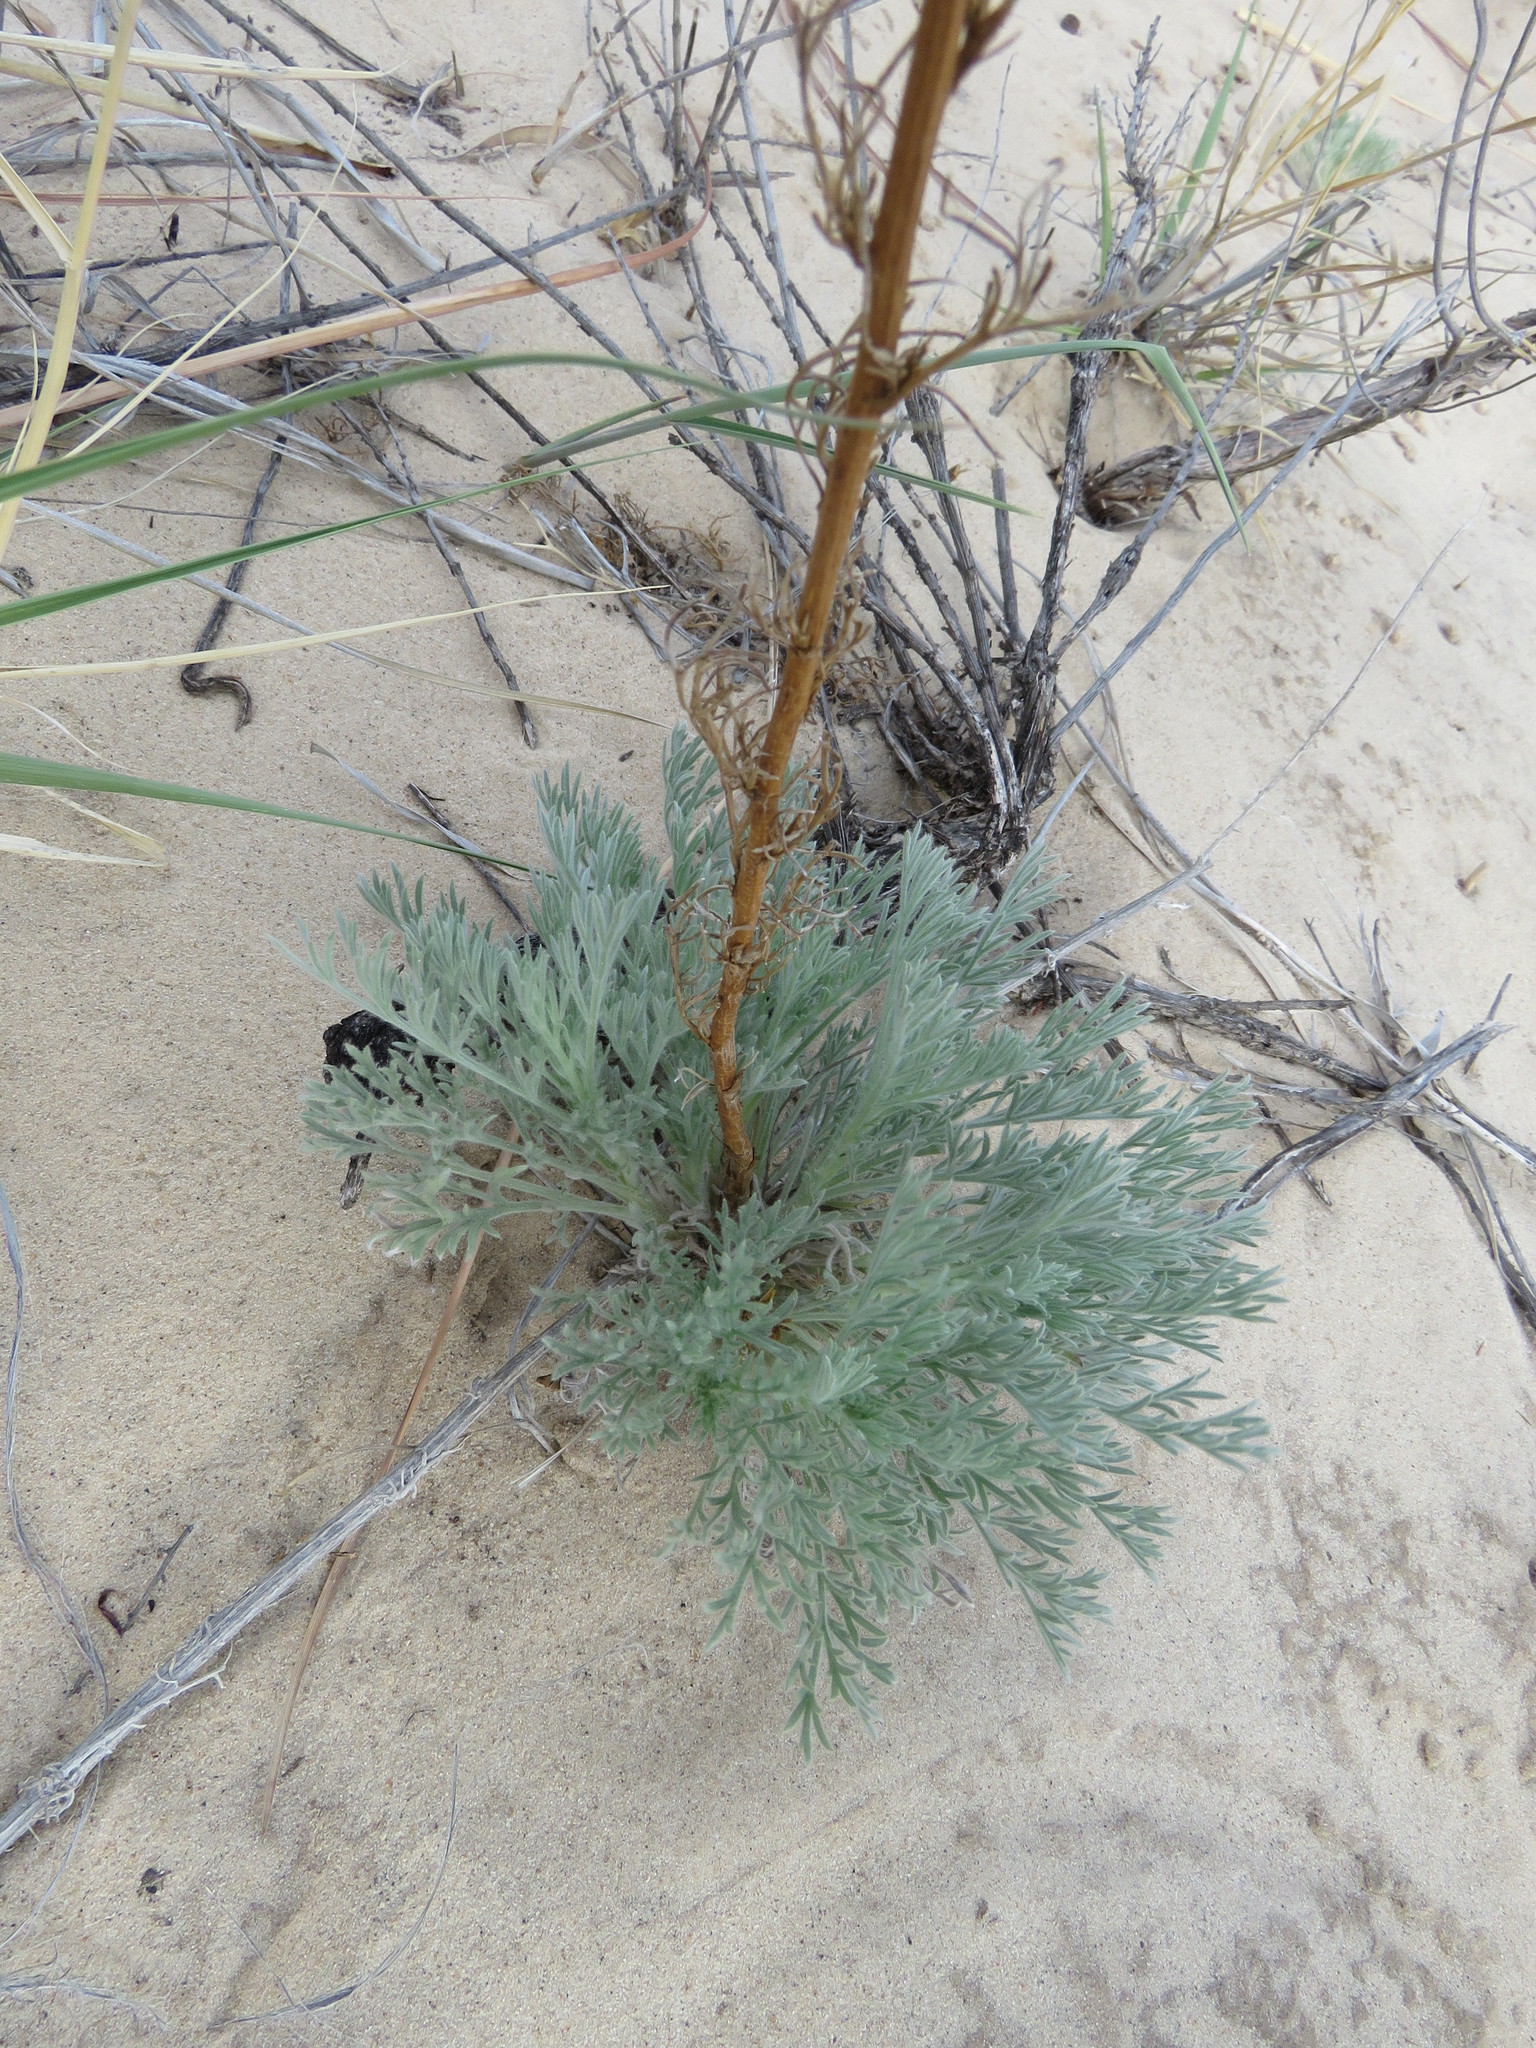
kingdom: Plantae
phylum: Tracheophyta
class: Magnoliopsida
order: Asterales
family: Asteraceae
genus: Artemisia
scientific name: Artemisia campestris
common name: Field wormwood
